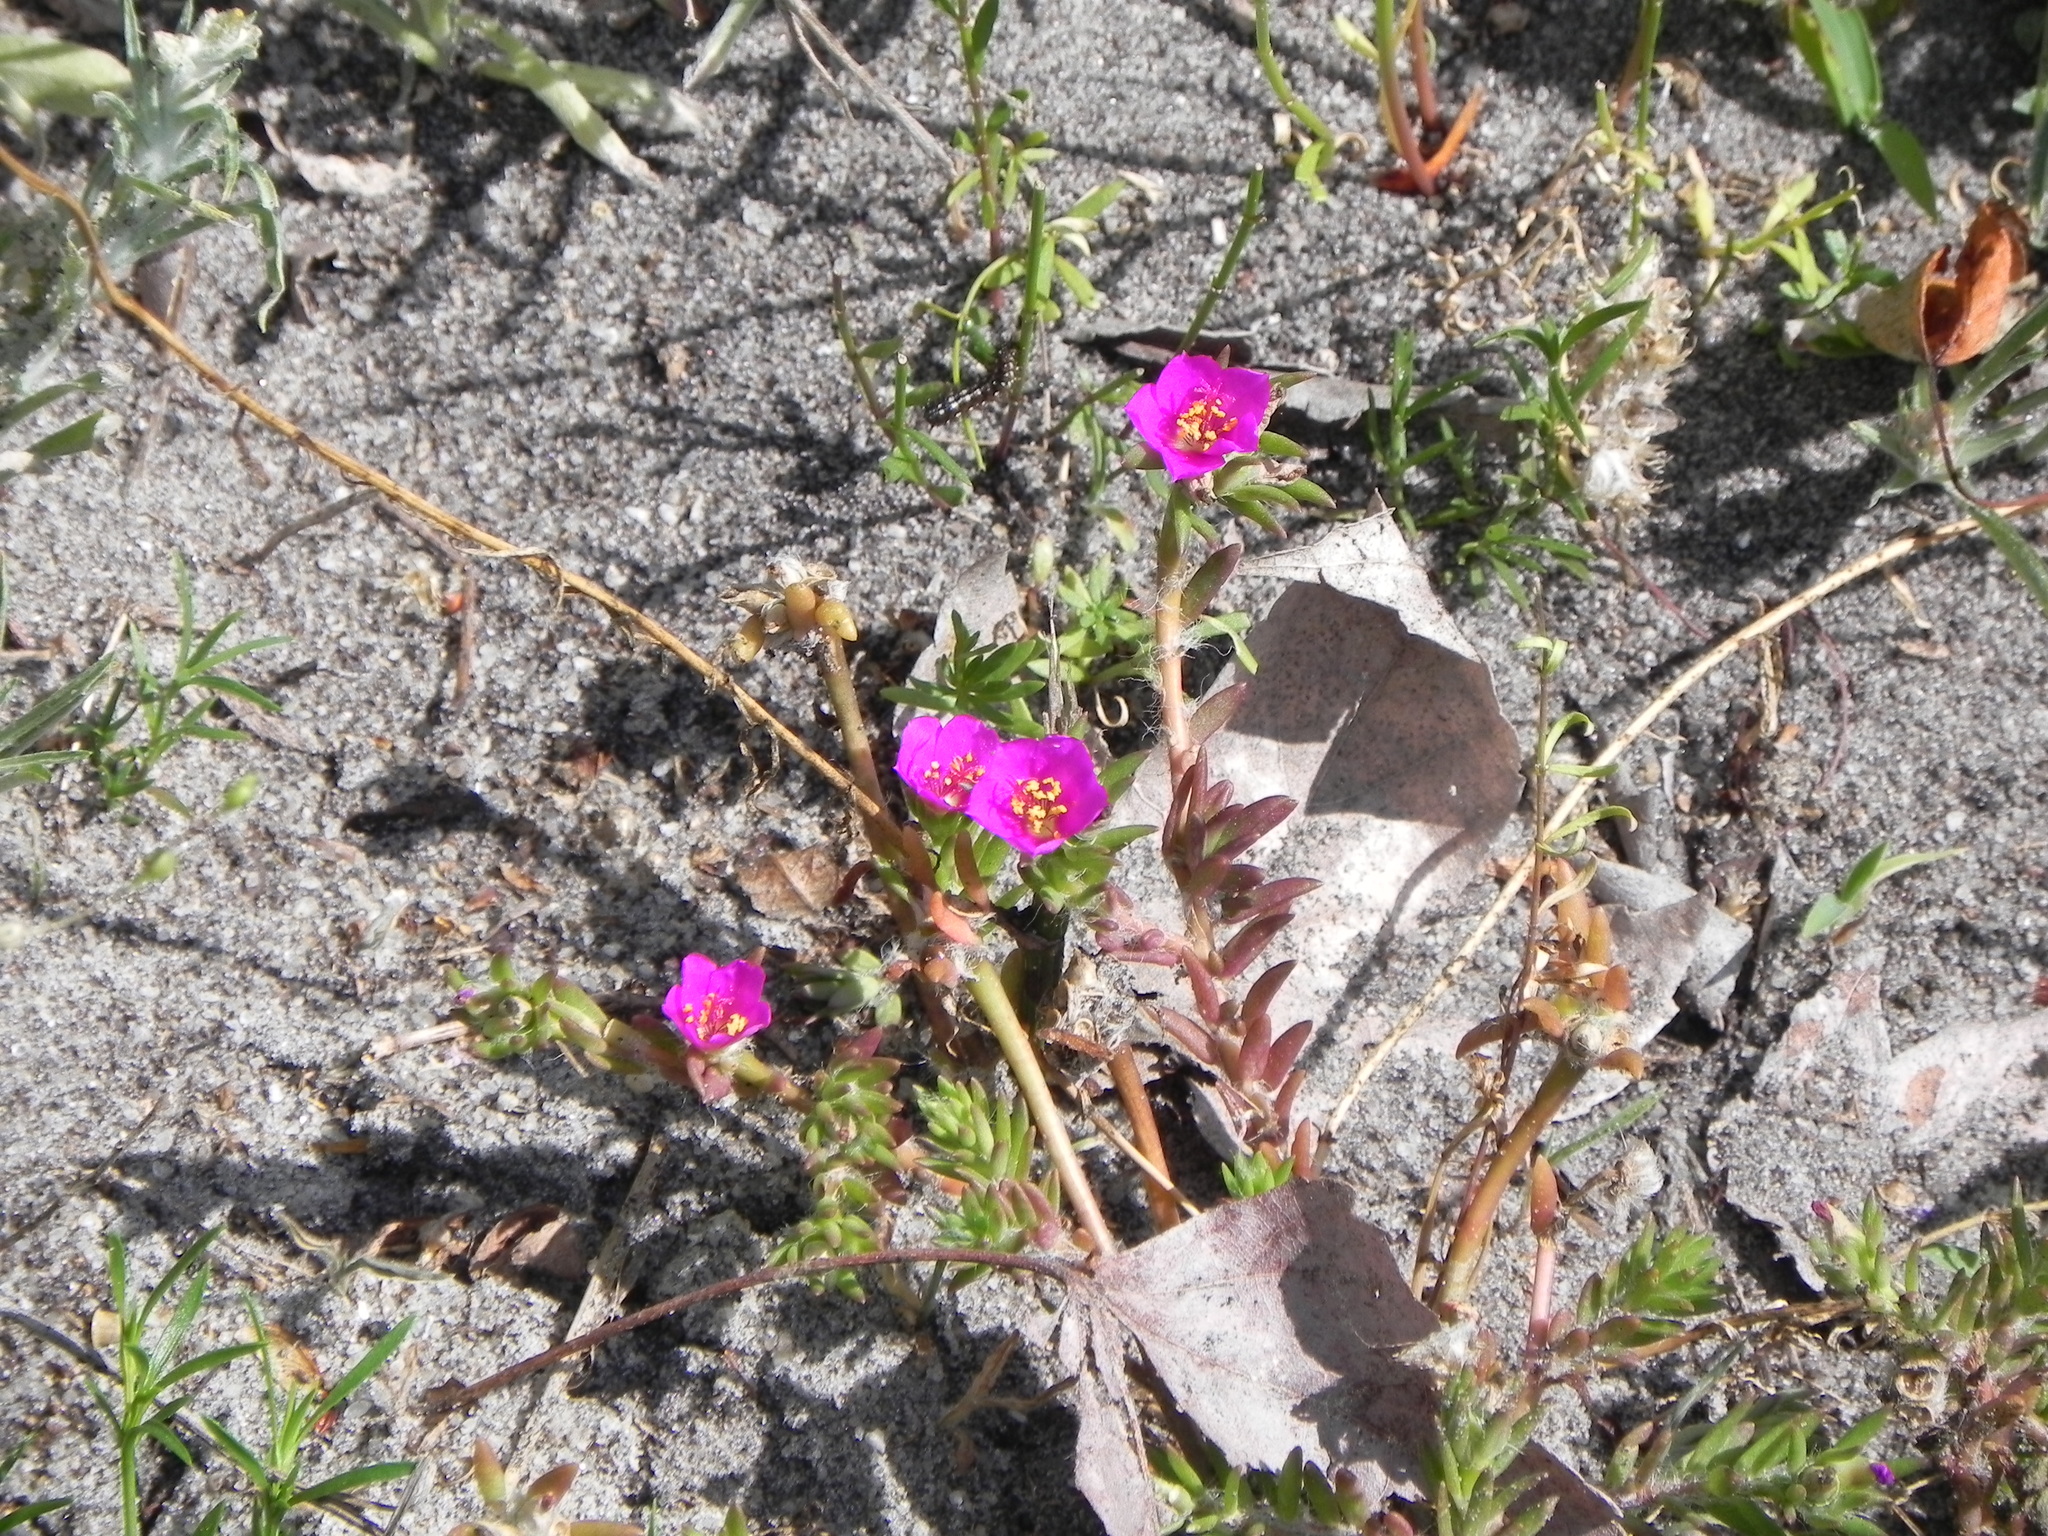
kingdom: Plantae
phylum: Tracheophyta
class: Magnoliopsida
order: Caryophyllales
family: Portulacaceae
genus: Portulaca
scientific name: Portulaca pilosa
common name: Kiss me quick
